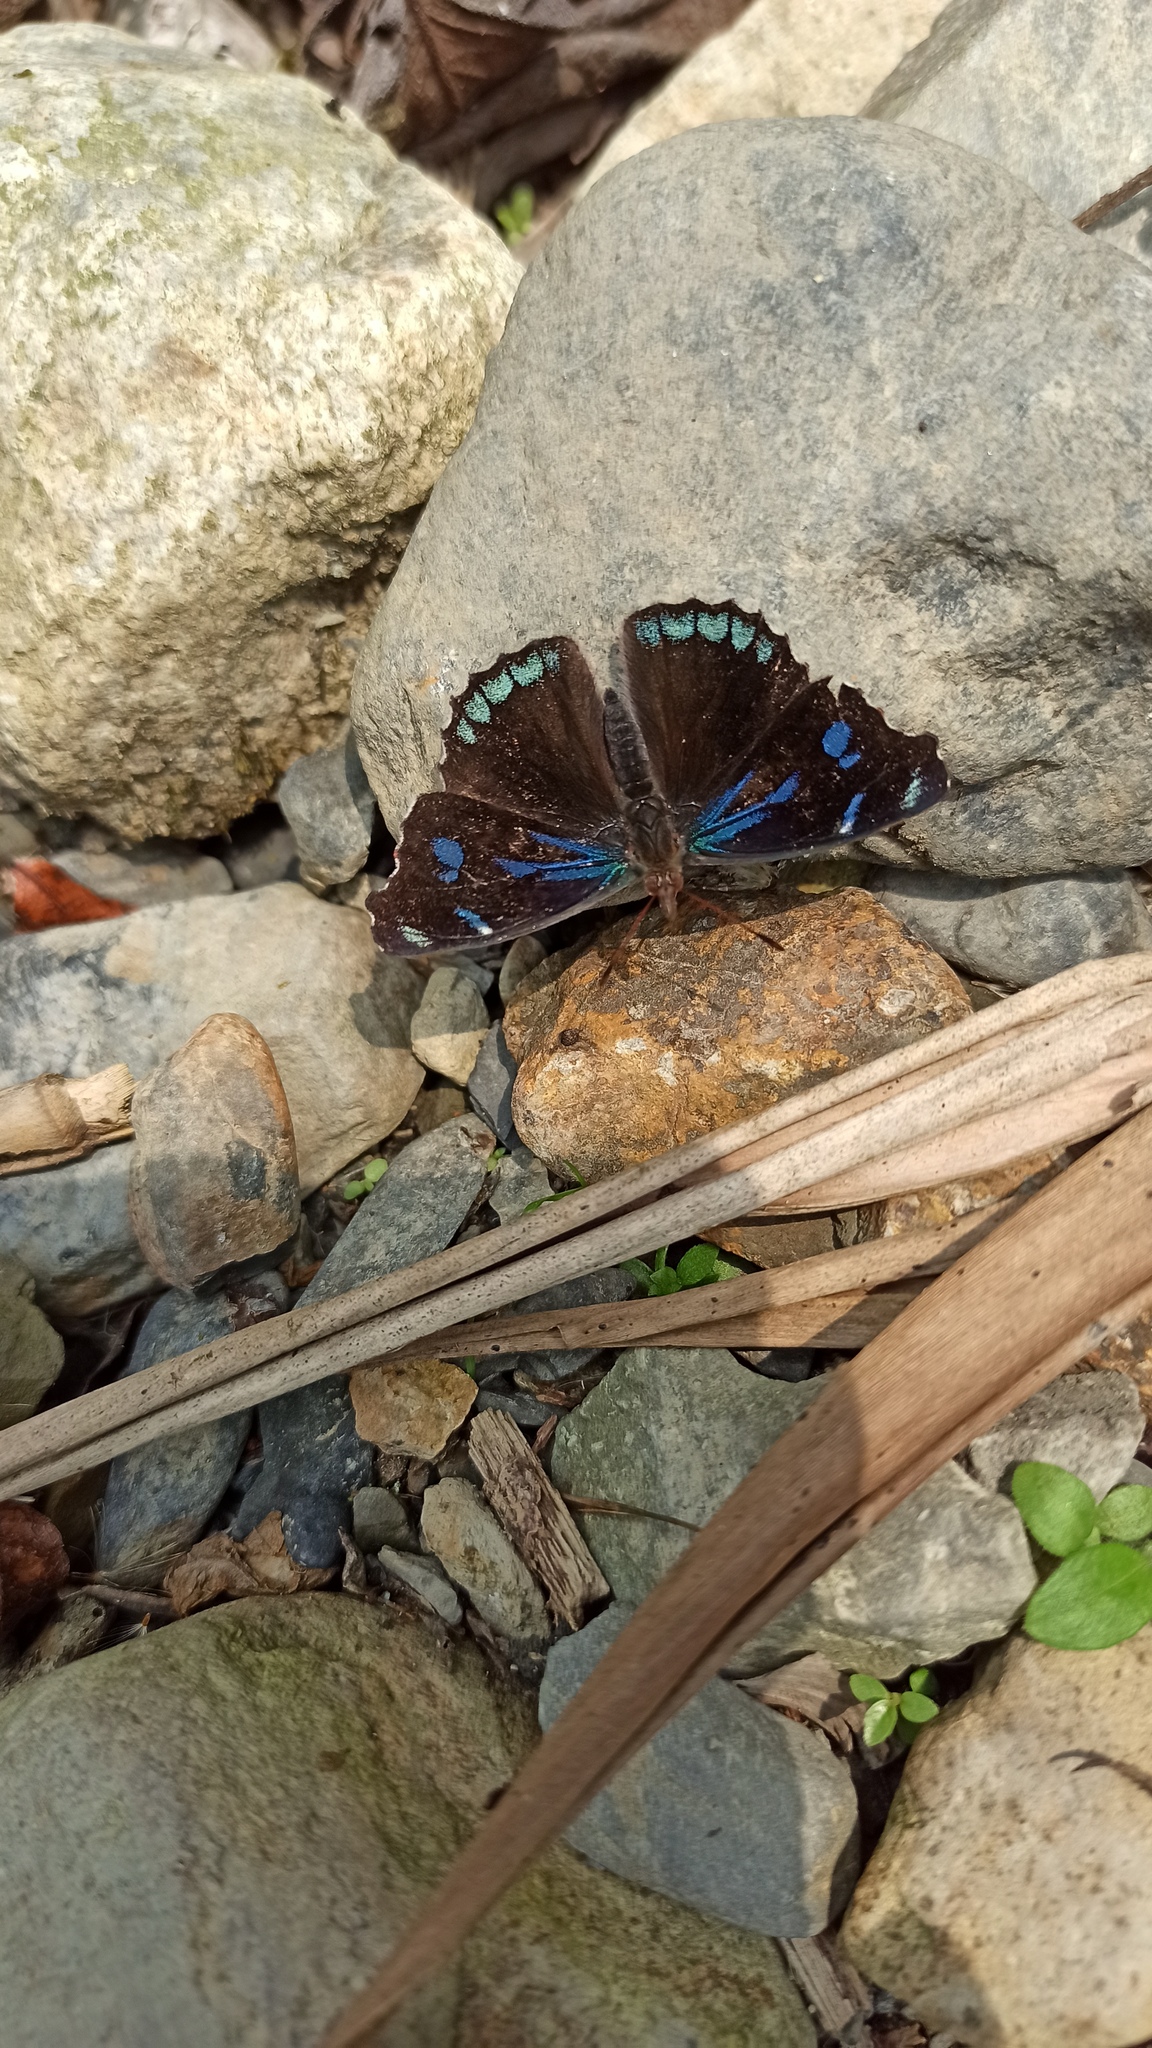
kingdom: Animalia
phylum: Arthropoda
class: Insecta
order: Lepidoptera
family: Nymphalidae
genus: Perisama
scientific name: Perisama Orophila cecidas
